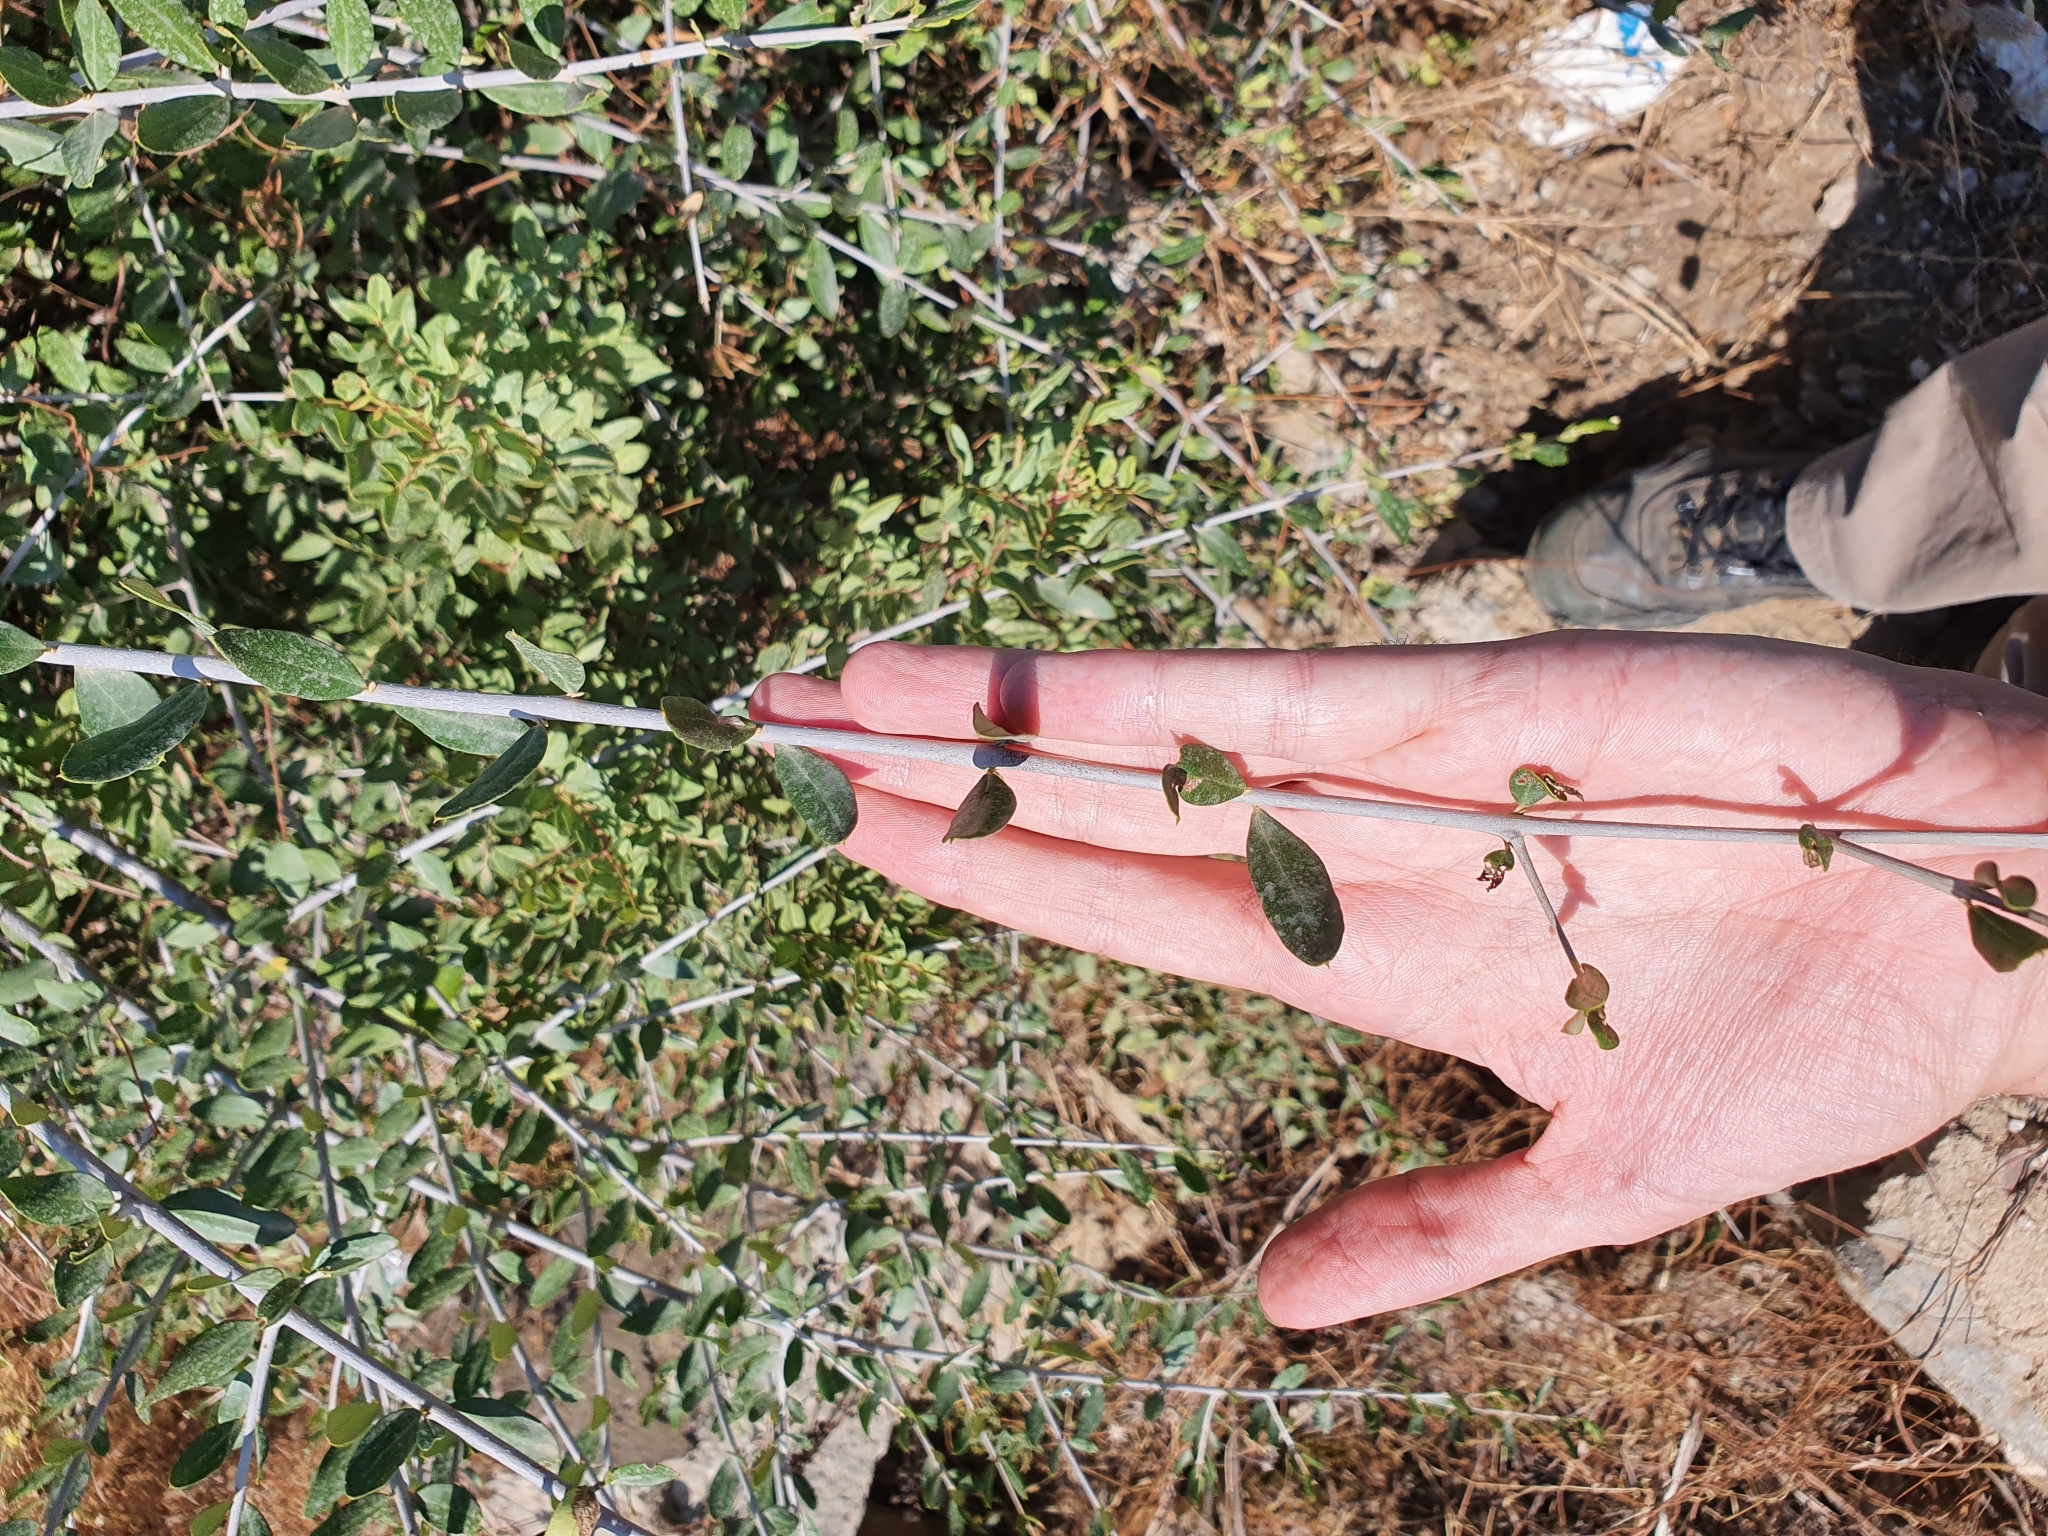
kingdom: Plantae
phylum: Tracheophyta
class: Magnoliopsida
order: Lamiales
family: Oleaceae
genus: Olea
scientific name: Olea europaea
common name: Olive
